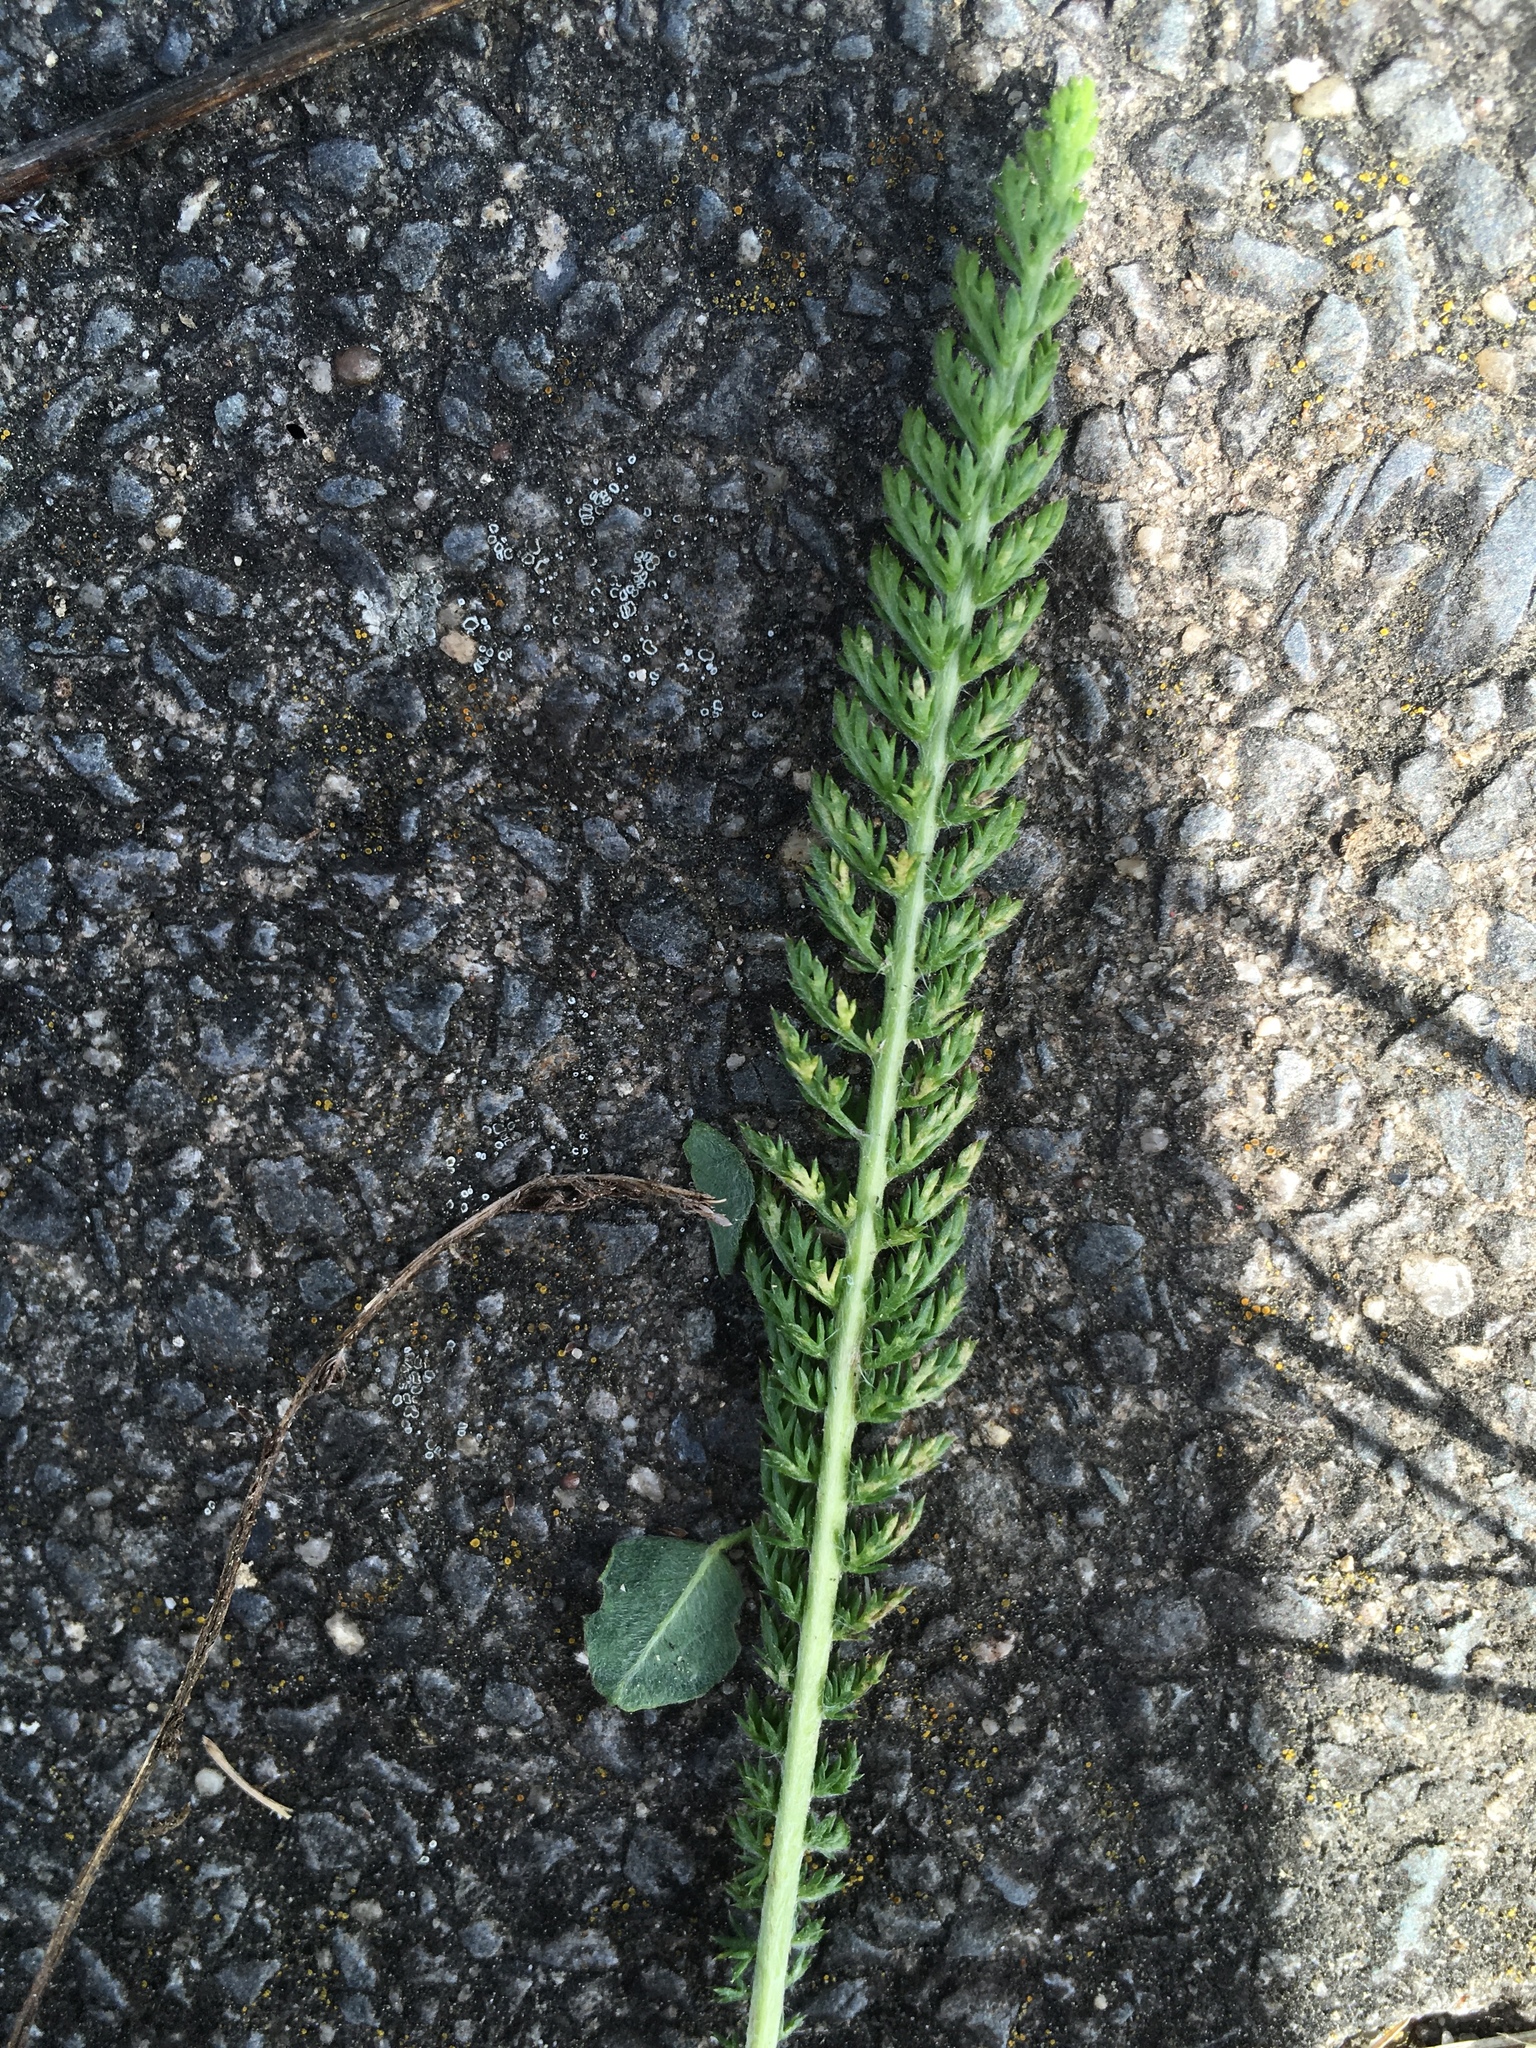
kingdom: Plantae
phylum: Tracheophyta
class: Magnoliopsida
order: Asterales
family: Asteraceae
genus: Achillea
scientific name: Achillea millefolium
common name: Yarrow
